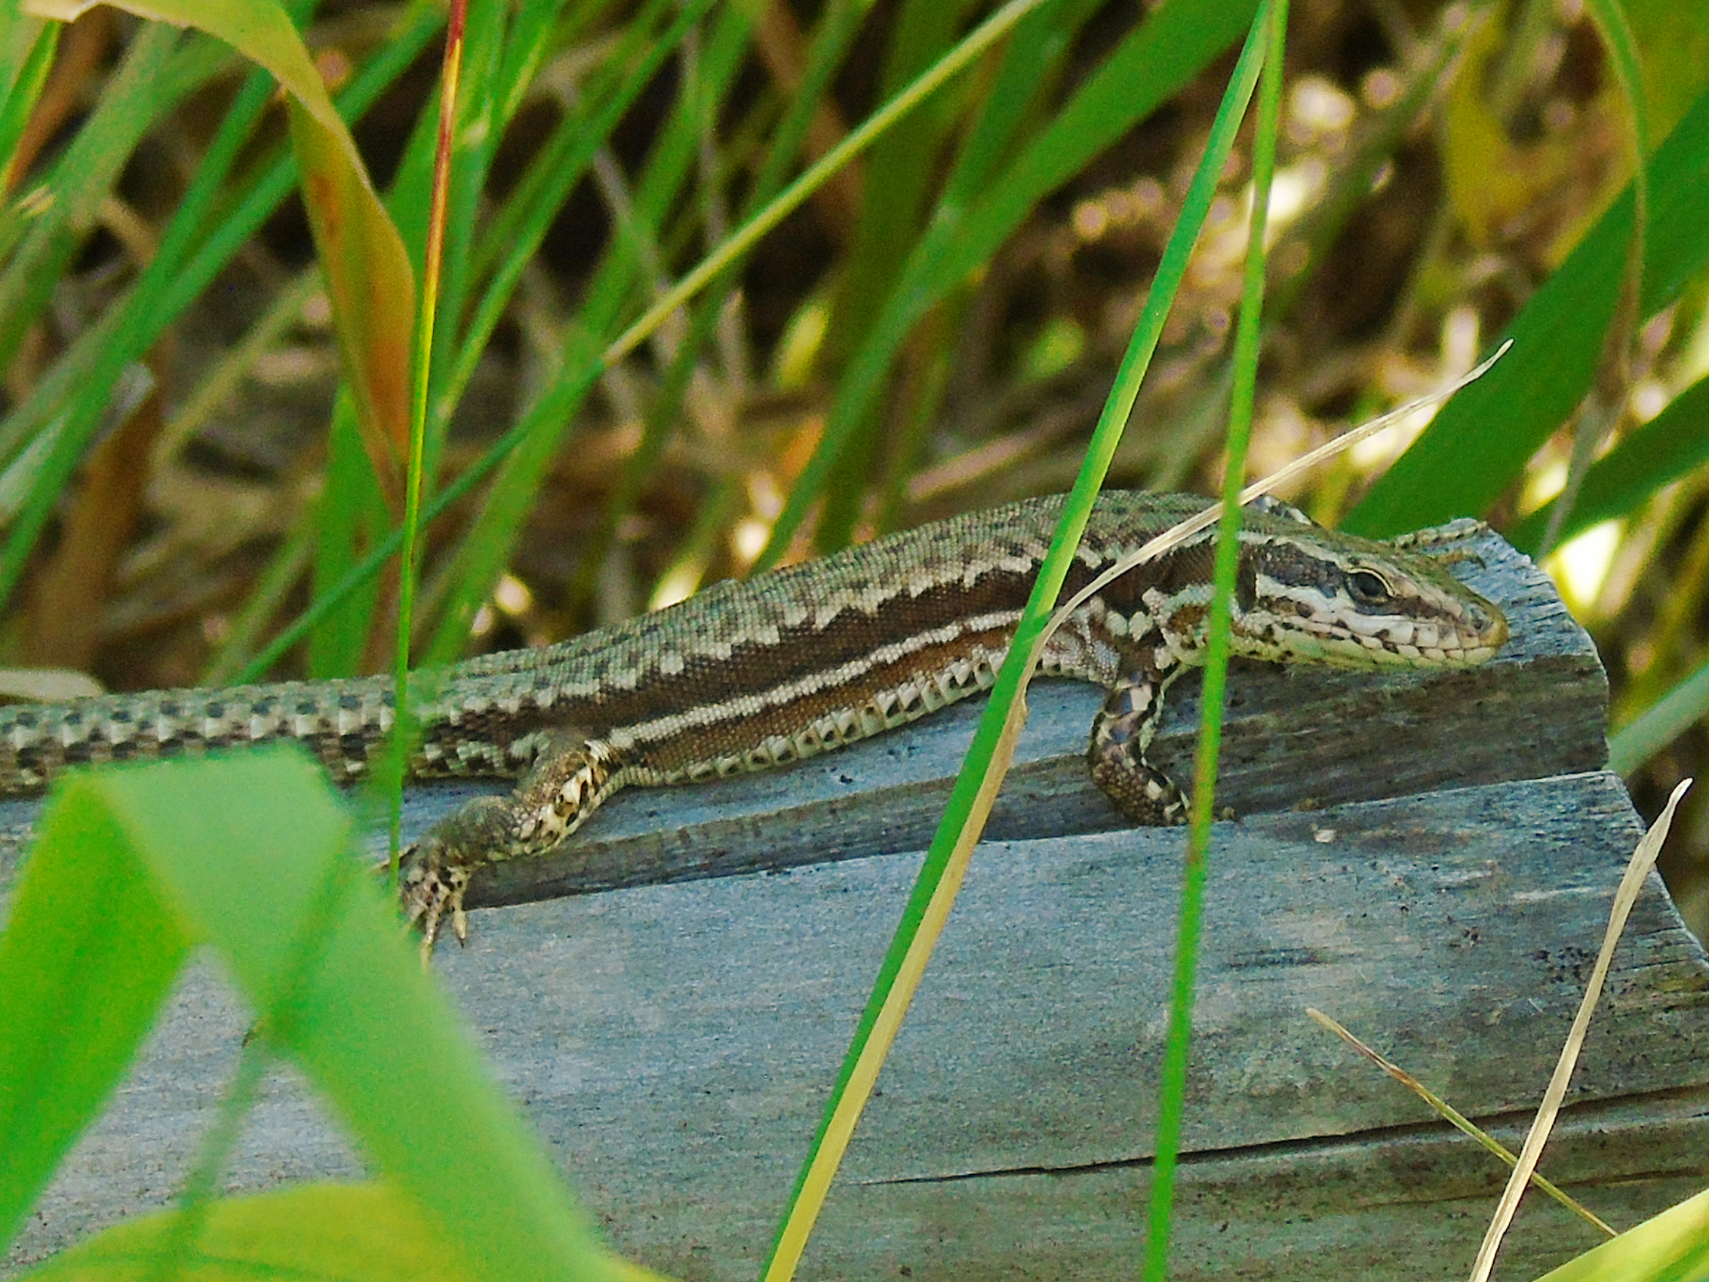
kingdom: Animalia
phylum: Chordata
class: Squamata
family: Lacertidae
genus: Podarcis
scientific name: Podarcis muralis
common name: Common wall lizard
